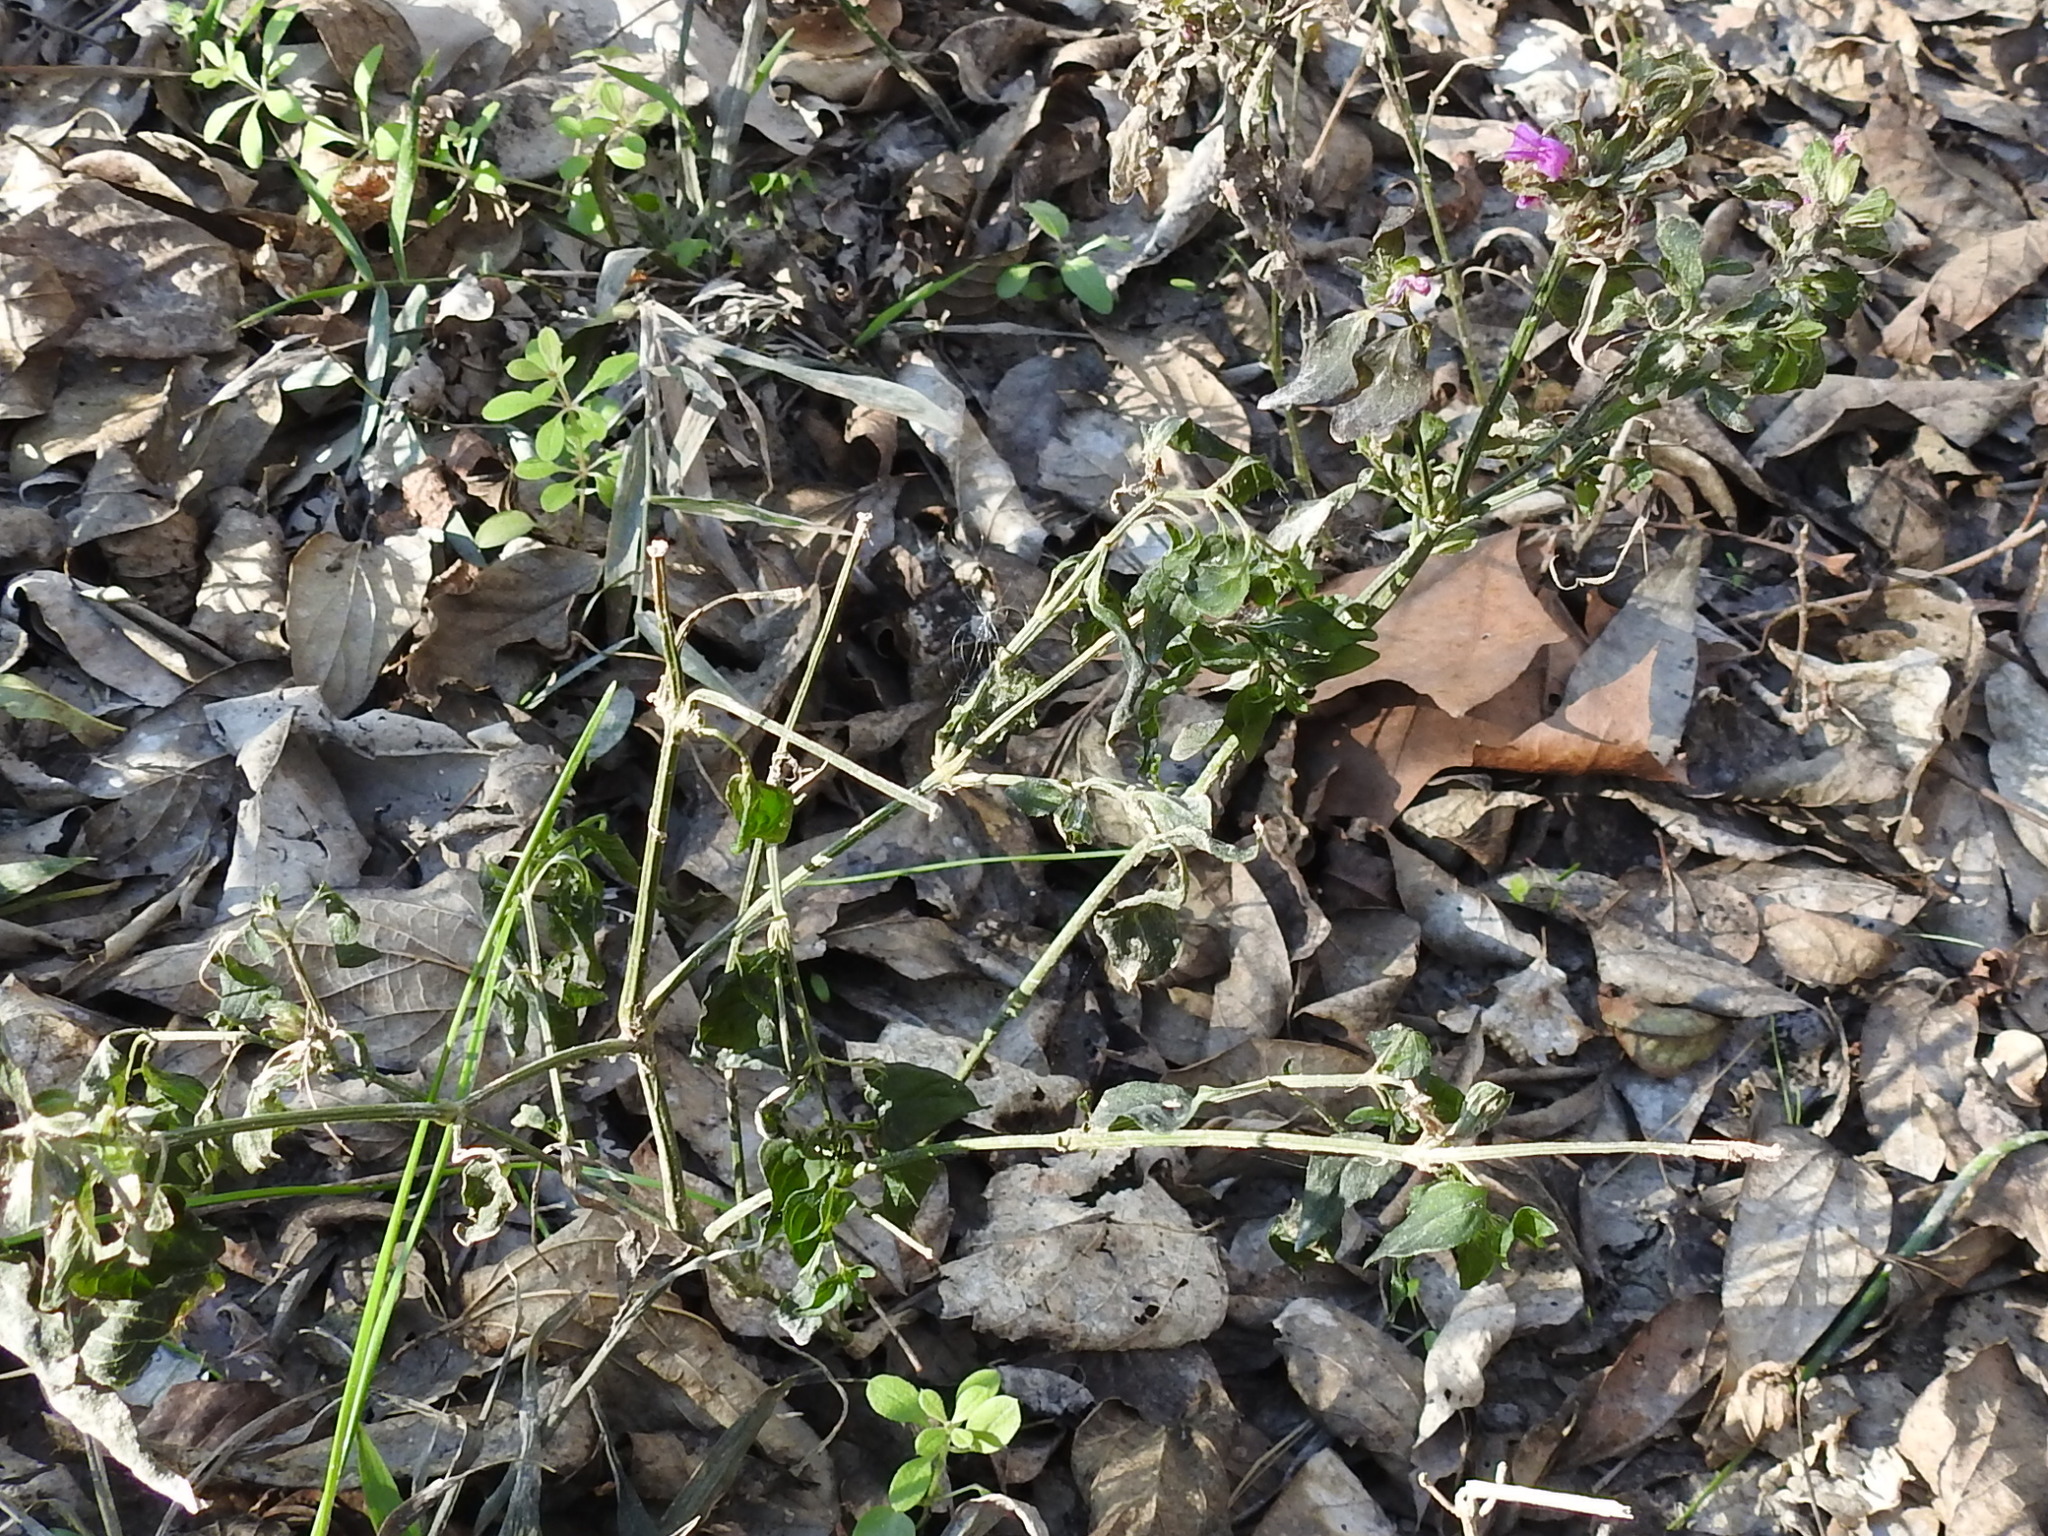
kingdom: Plantae
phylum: Tracheophyta
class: Magnoliopsida
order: Lamiales
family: Acanthaceae
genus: Dicliptera
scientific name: Dicliptera brachiata
